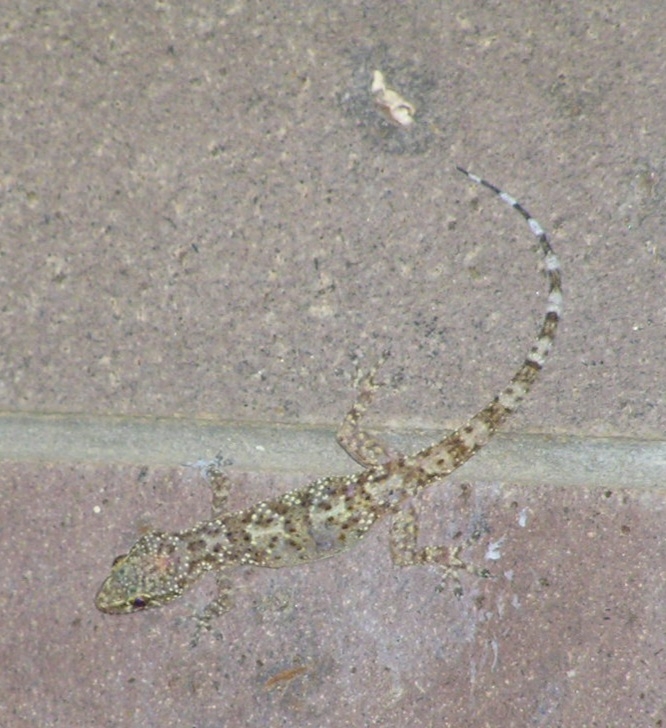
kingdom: Animalia
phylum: Chordata
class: Squamata
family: Gekkonidae
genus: Hemidactylus
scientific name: Hemidactylus turcicus
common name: Turkish gecko
